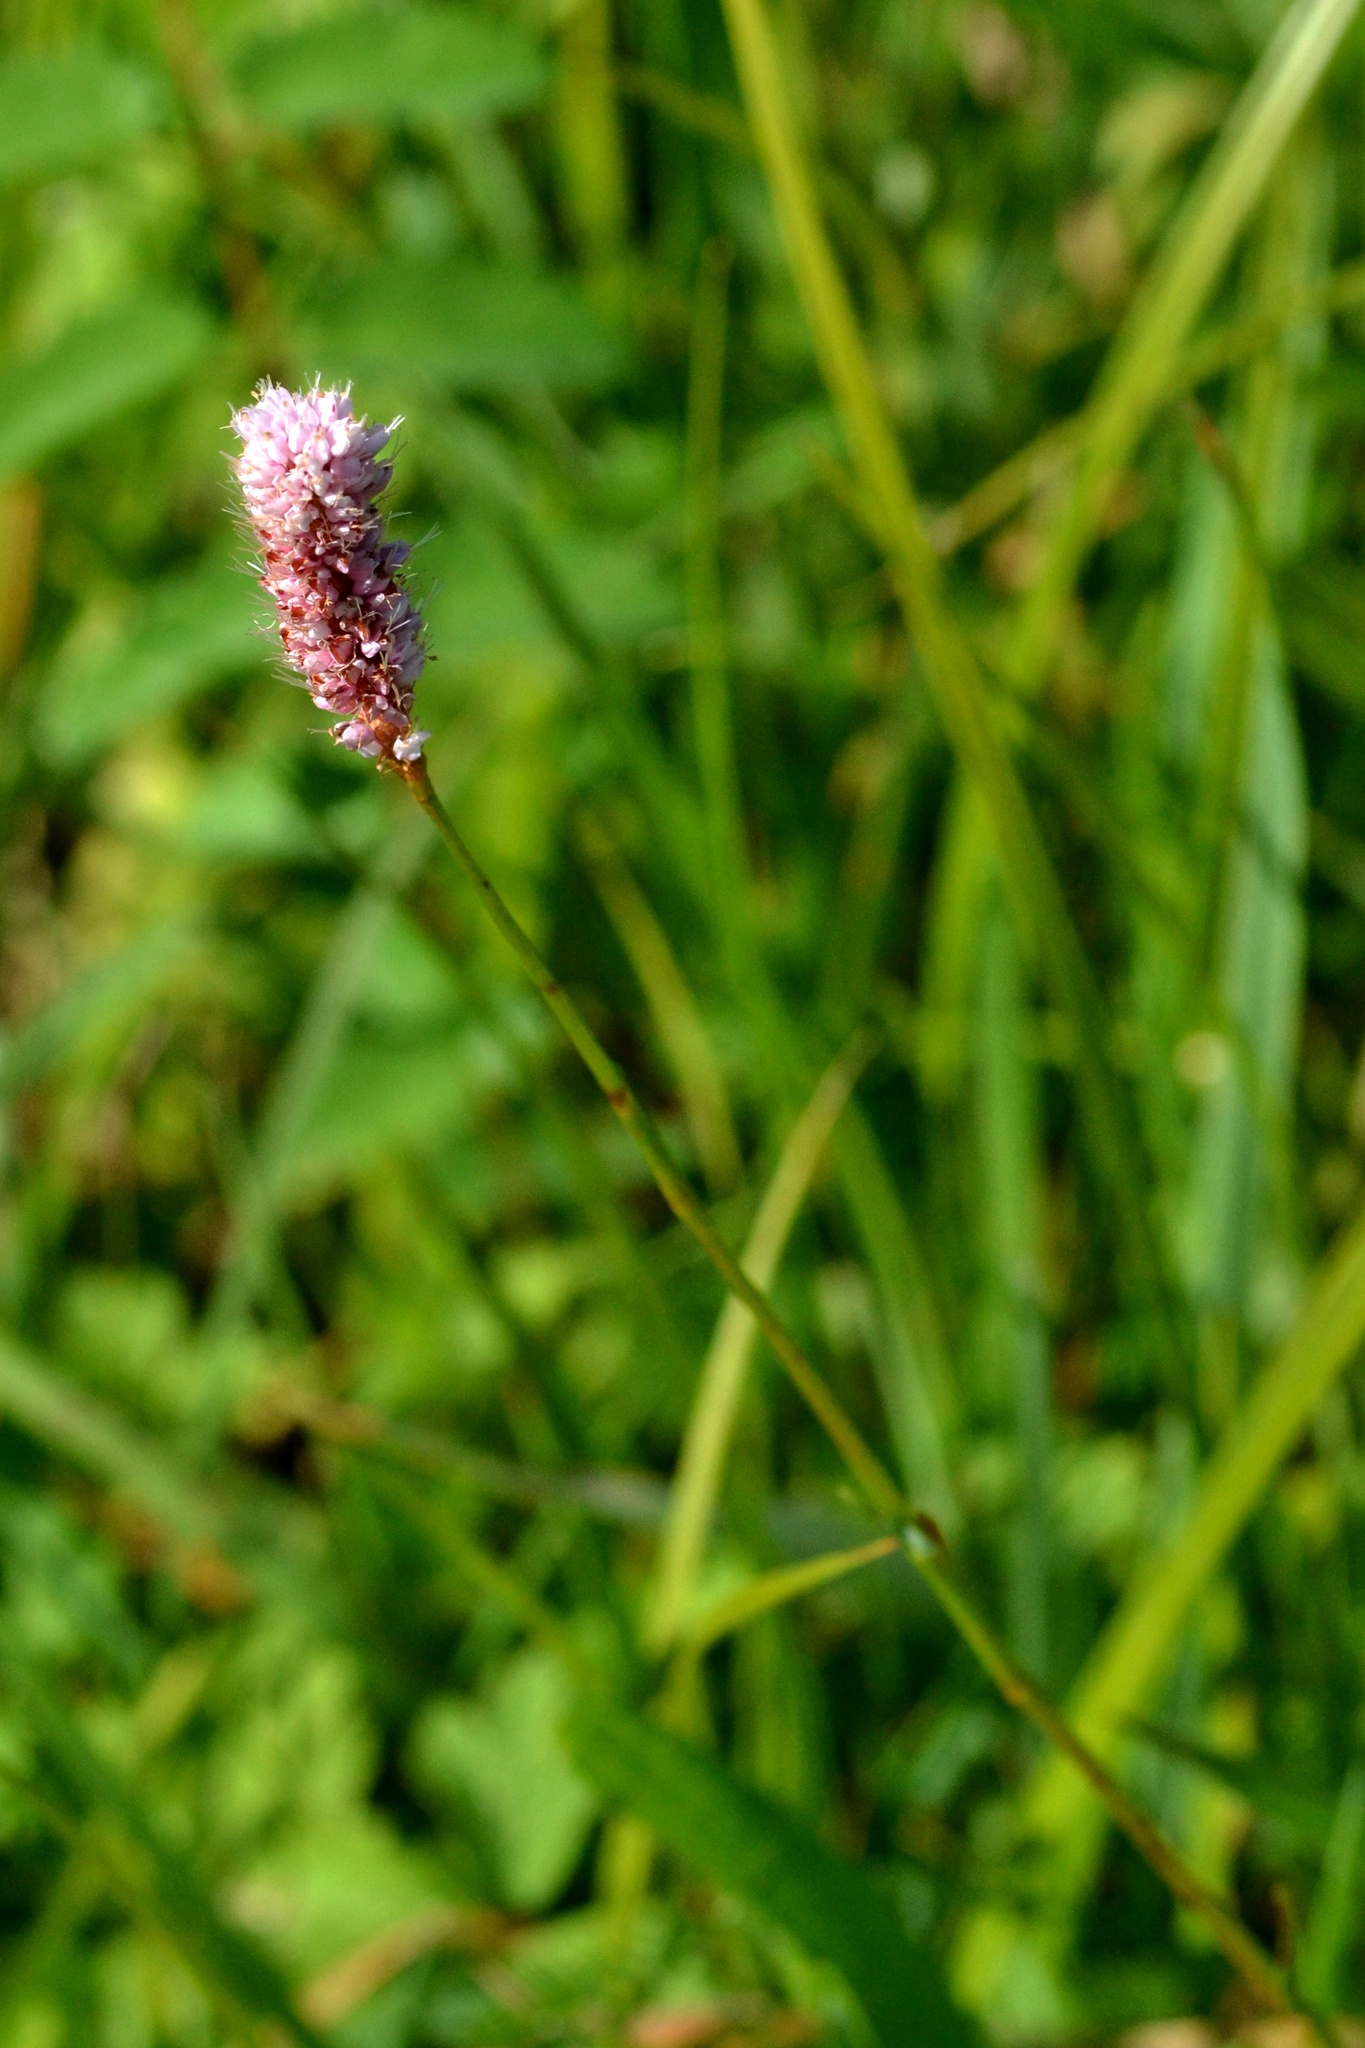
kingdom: Plantae
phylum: Tracheophyta
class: Magnoliopsida
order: Caryophyllales
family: Polygonaceae
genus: Bistorta
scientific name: Bistorta officinalis
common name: Common bistort
